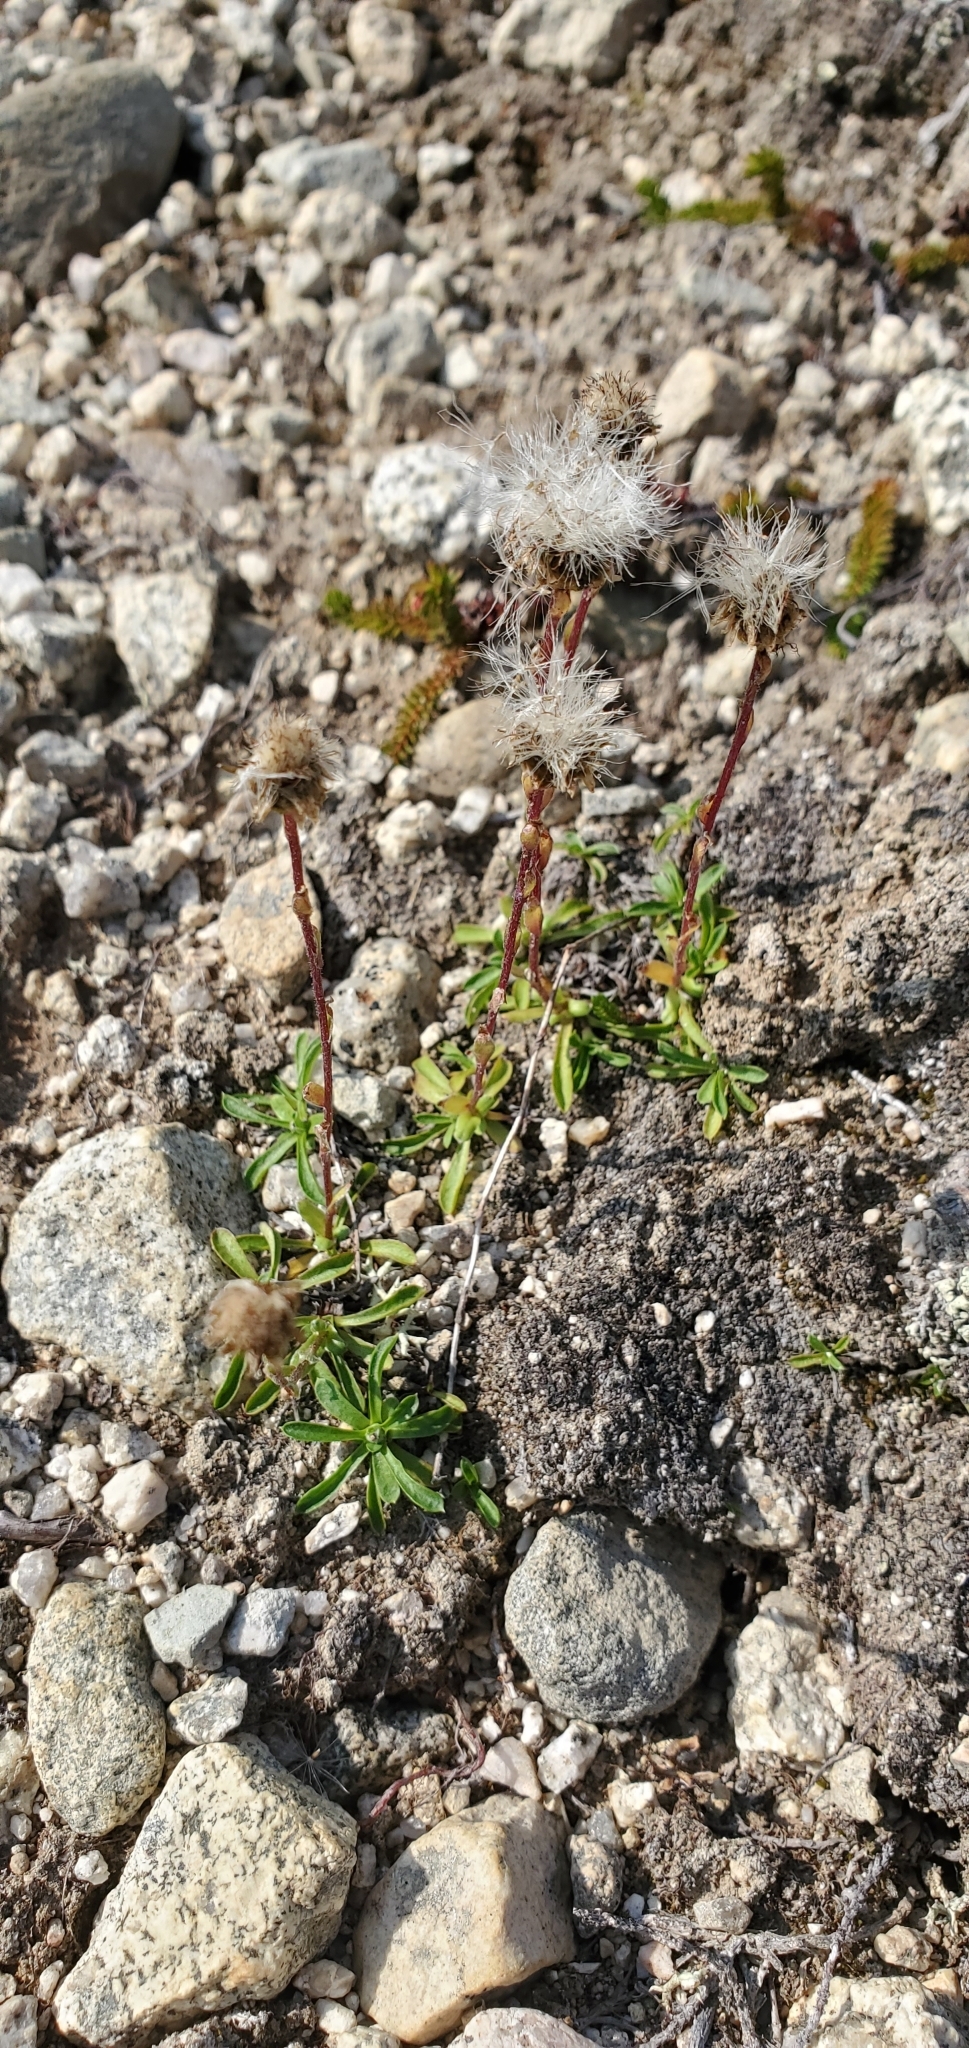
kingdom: Plantae
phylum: Tracheophyta
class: Magnoliopsida
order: Asterales
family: Asteraceae
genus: Antennaria
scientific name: Antennaria monocephala
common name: Pygmy pussytoes
